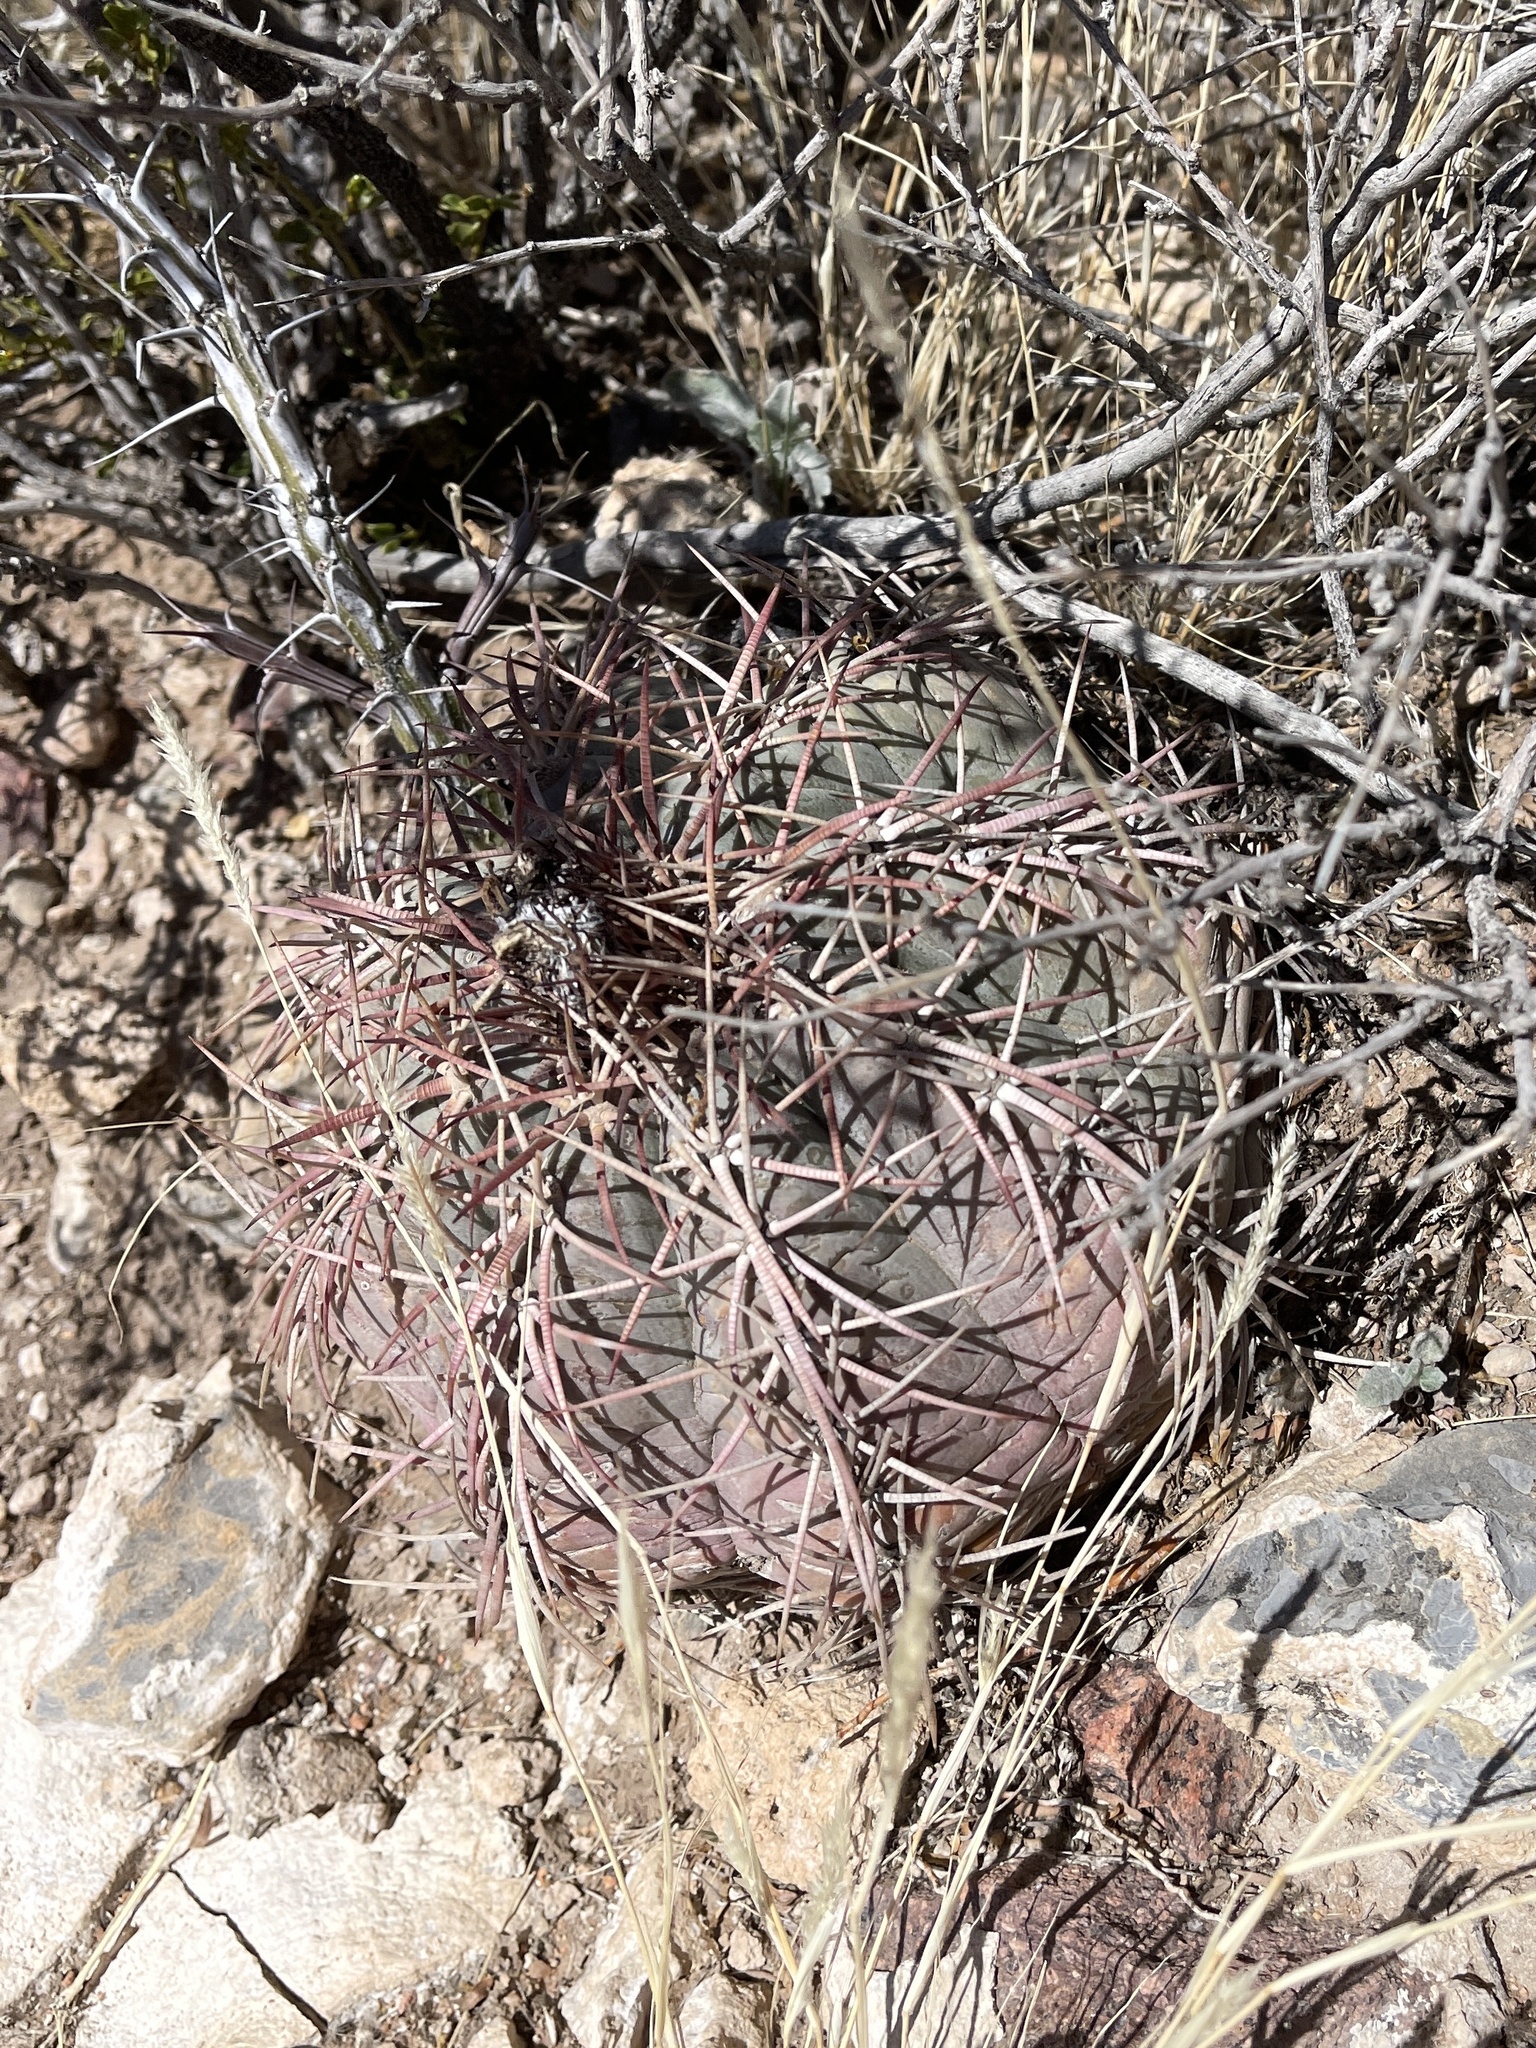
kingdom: Plantae
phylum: Tracheophyta
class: Magnoliopsida
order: Caryophyllales
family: Cactaceae
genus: Echinocactus
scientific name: Echinocactus horizonthalonius
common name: Devilshead
